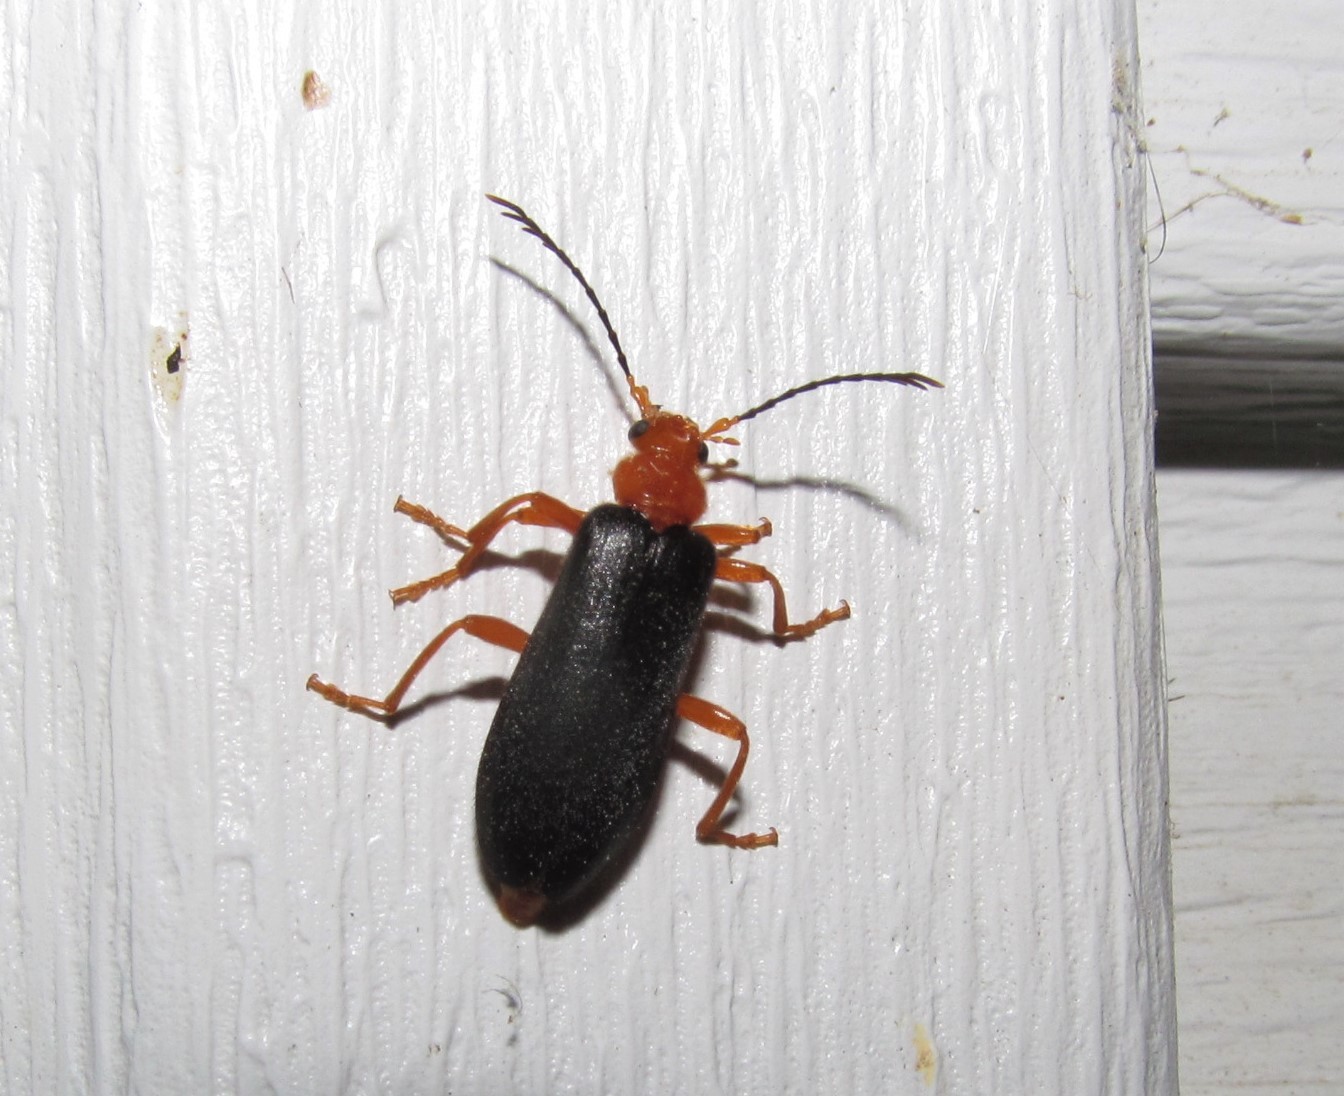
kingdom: Animalia
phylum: Arthropoda
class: Insecta
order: Coleoptera
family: Pyrochroidae
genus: Neopyrochroa
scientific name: Neopyrochroa flabellata
